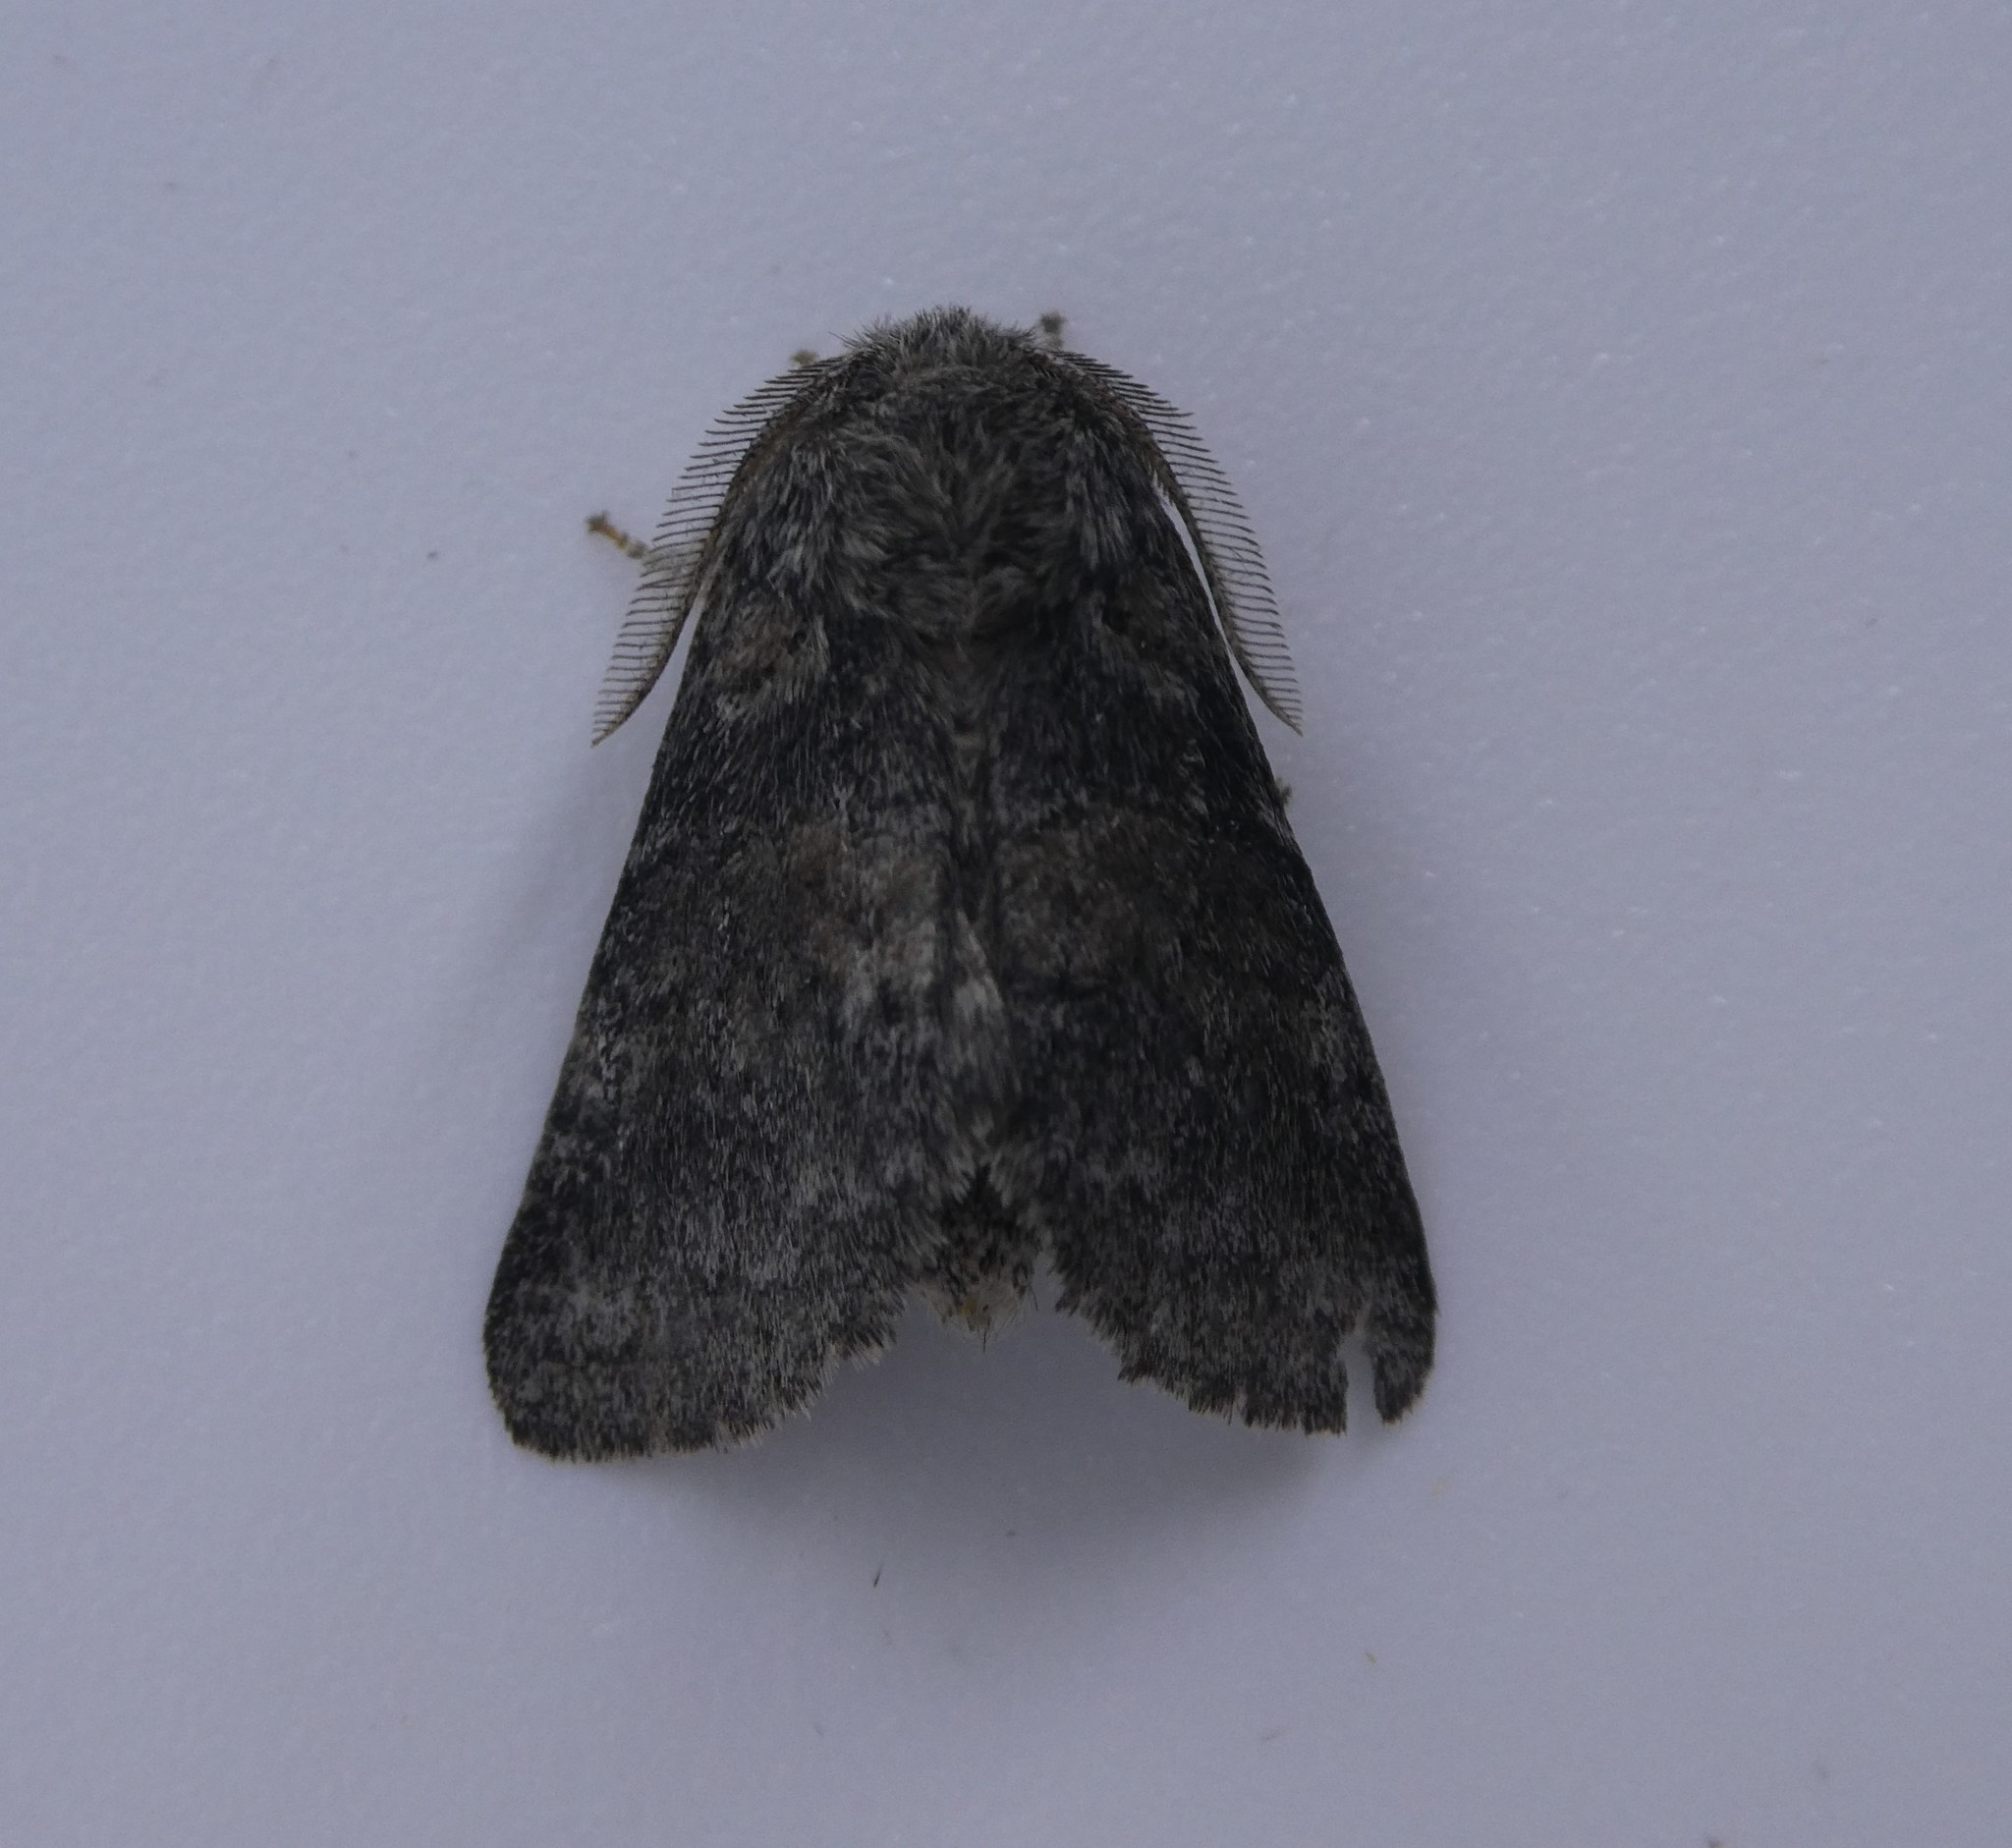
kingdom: Animalia
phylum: Arthropoda
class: Insecta
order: Lepidoptera
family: Notodontidae
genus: Gluphisia
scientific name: Gluphisia septentrionis
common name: Common gluphisia
